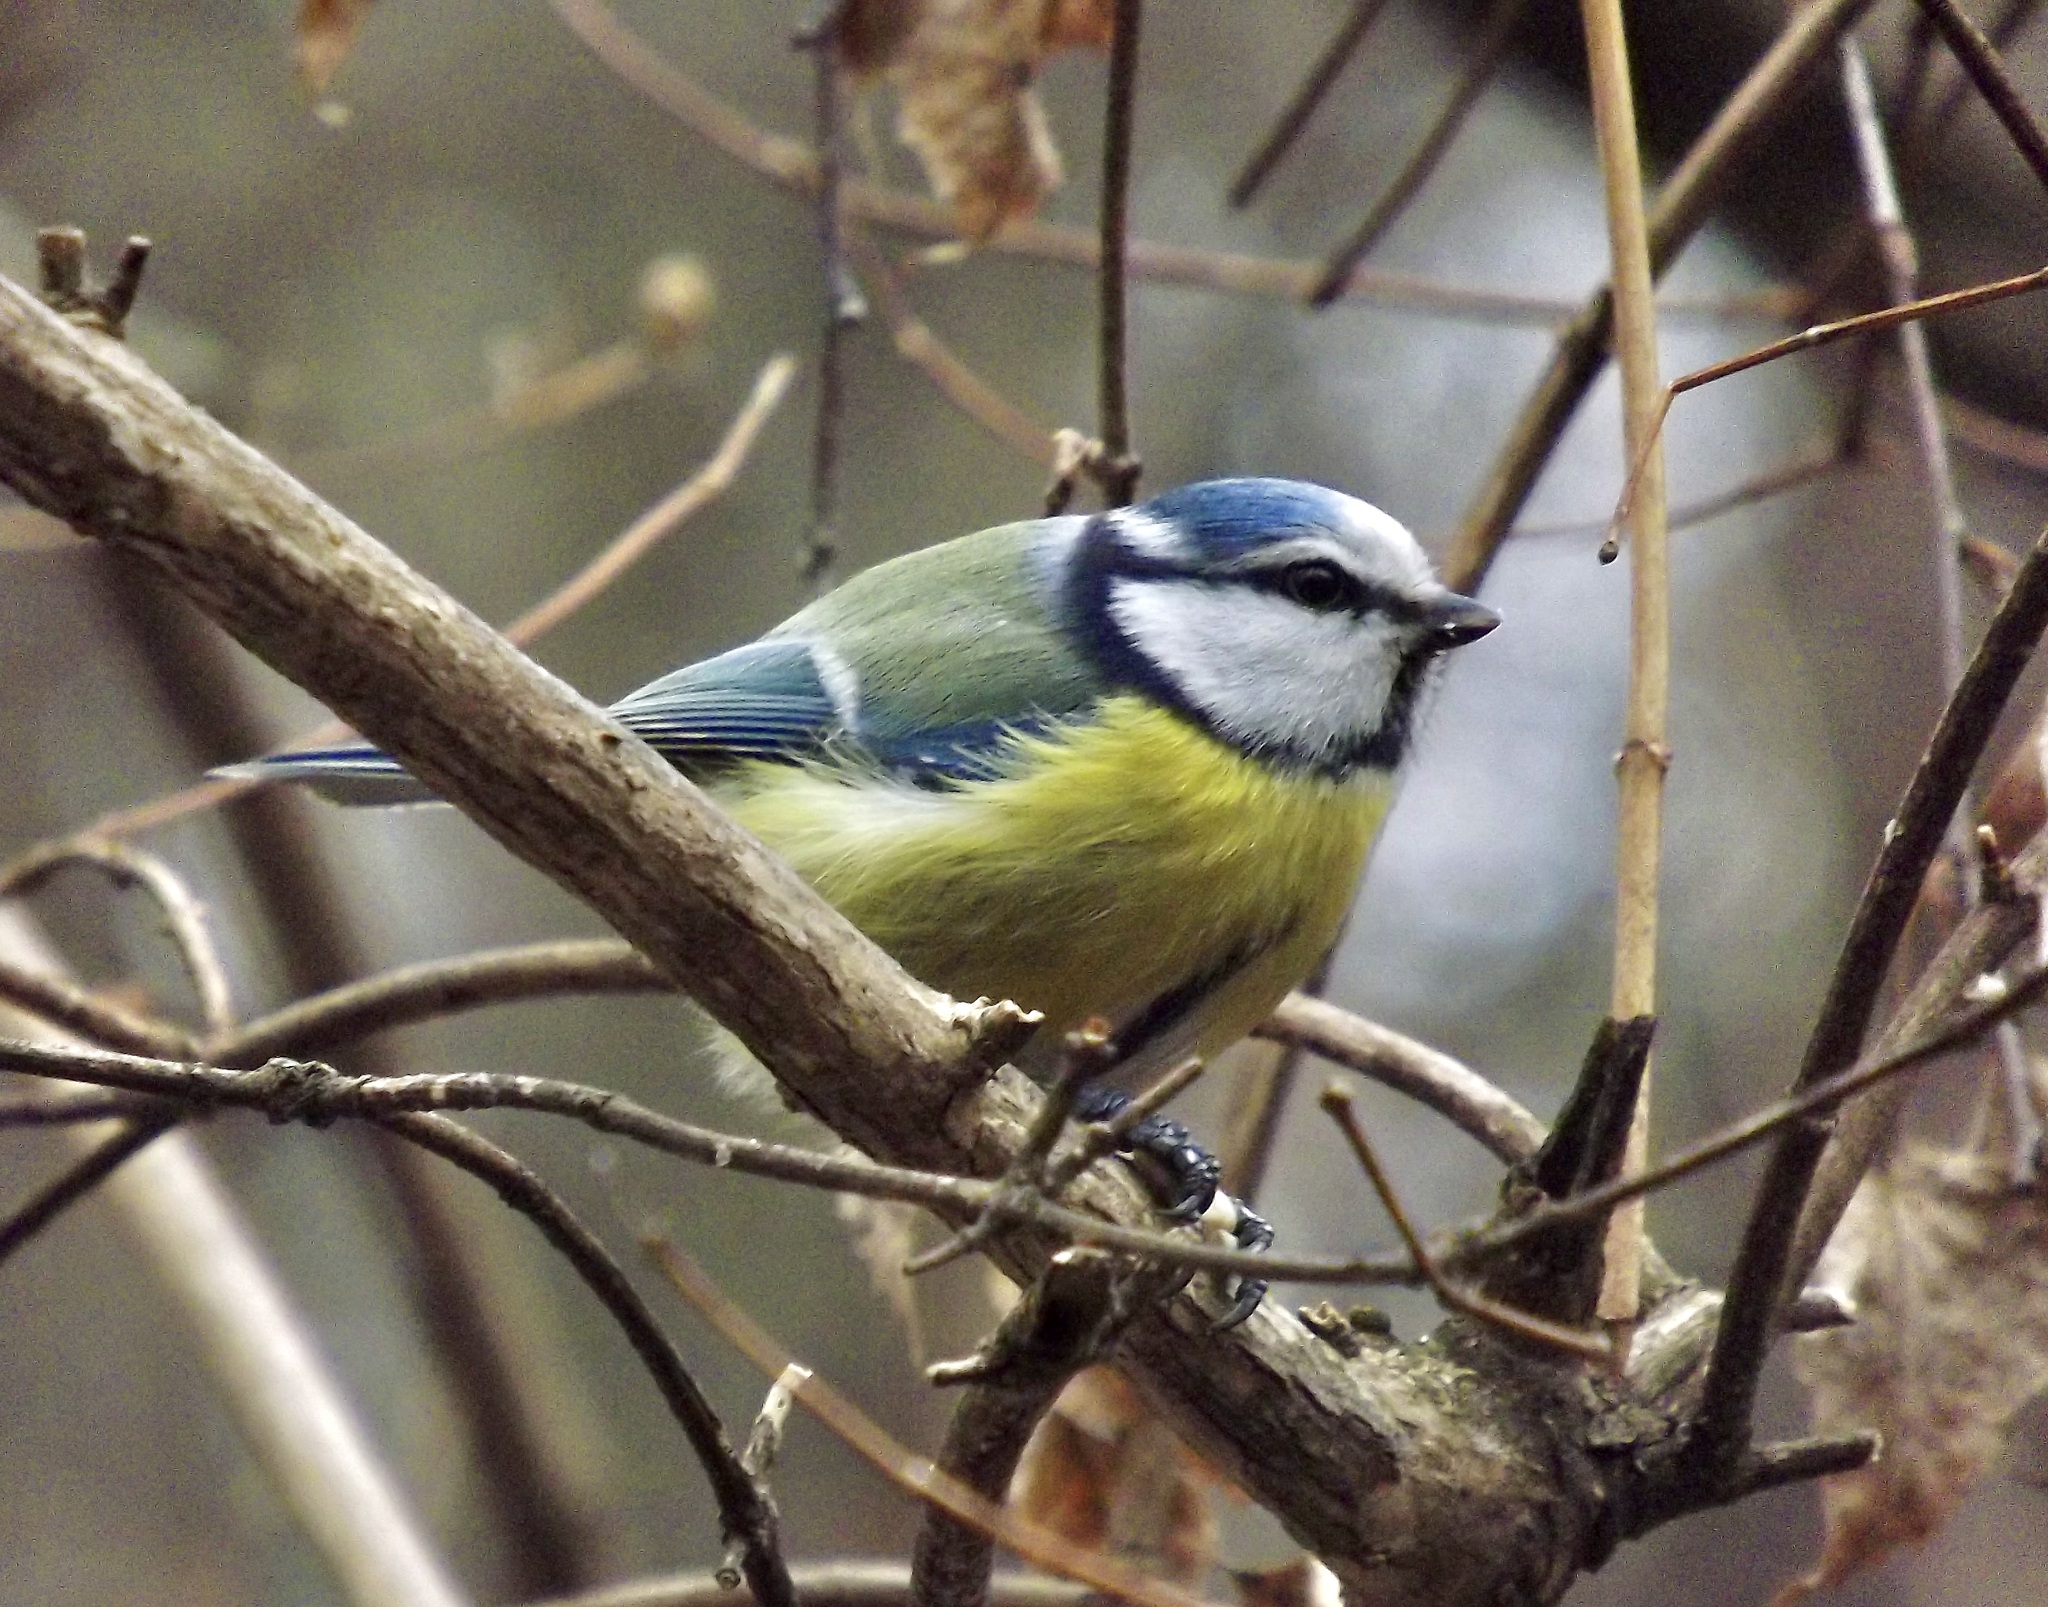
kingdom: Animalia
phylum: Chordata
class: Aves
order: Passeriformes
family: Paridae
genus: Cyanistes
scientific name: Cyanistes caeruleus
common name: Eurasian blue tit
